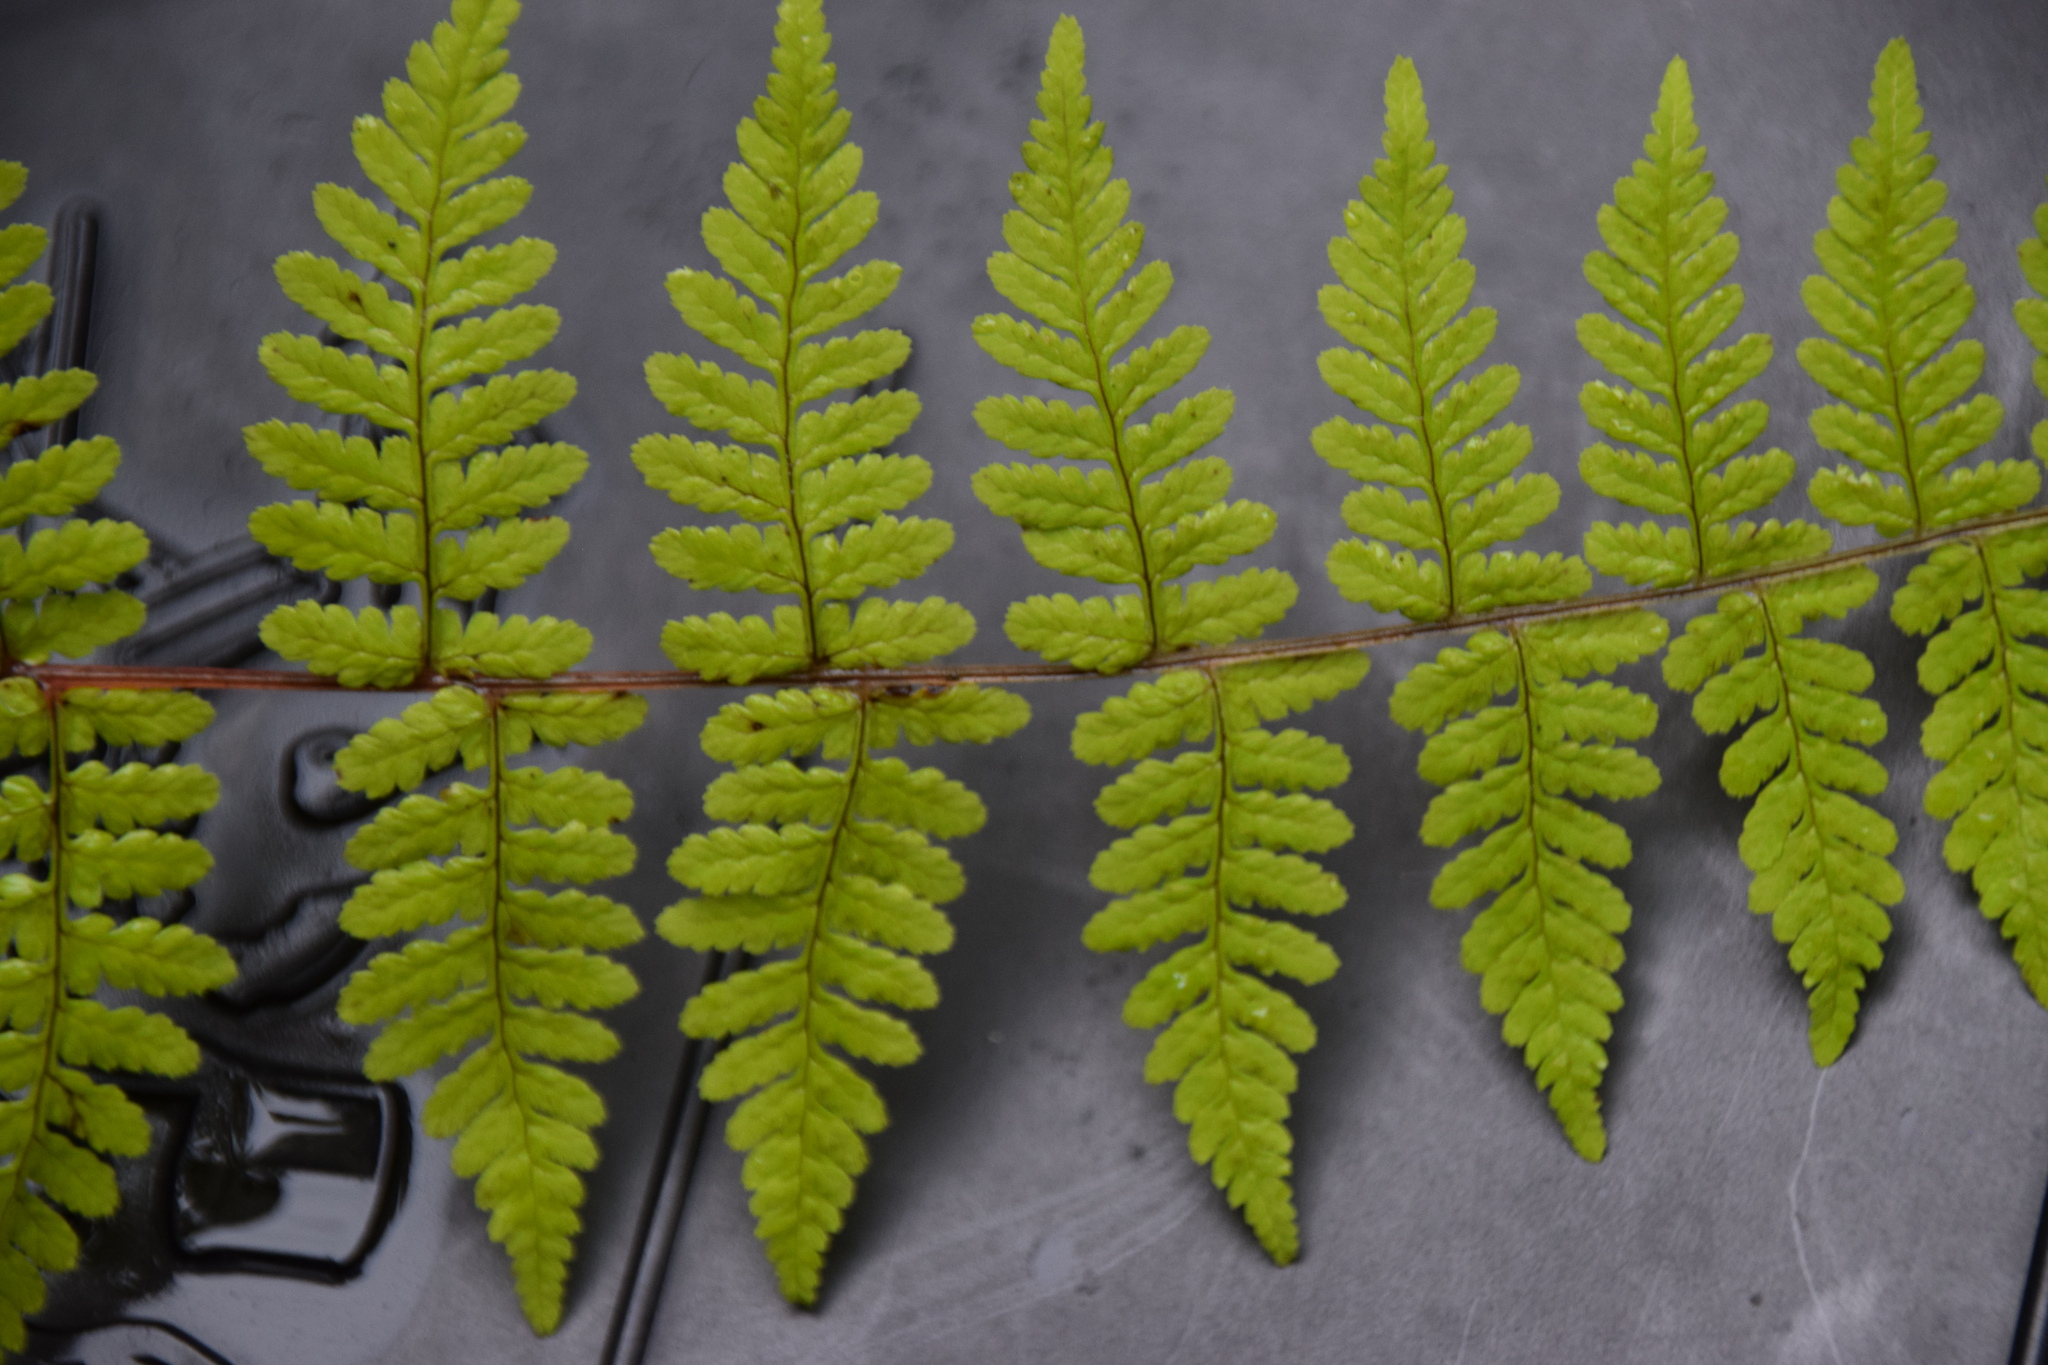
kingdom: Plantae
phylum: Tracheophyta
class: Polypodiopsida
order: Polypodiales
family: Cystopteridaceae
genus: Cystopteris
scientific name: Cystopteris bulbifera
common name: Bulblet bladder fern
